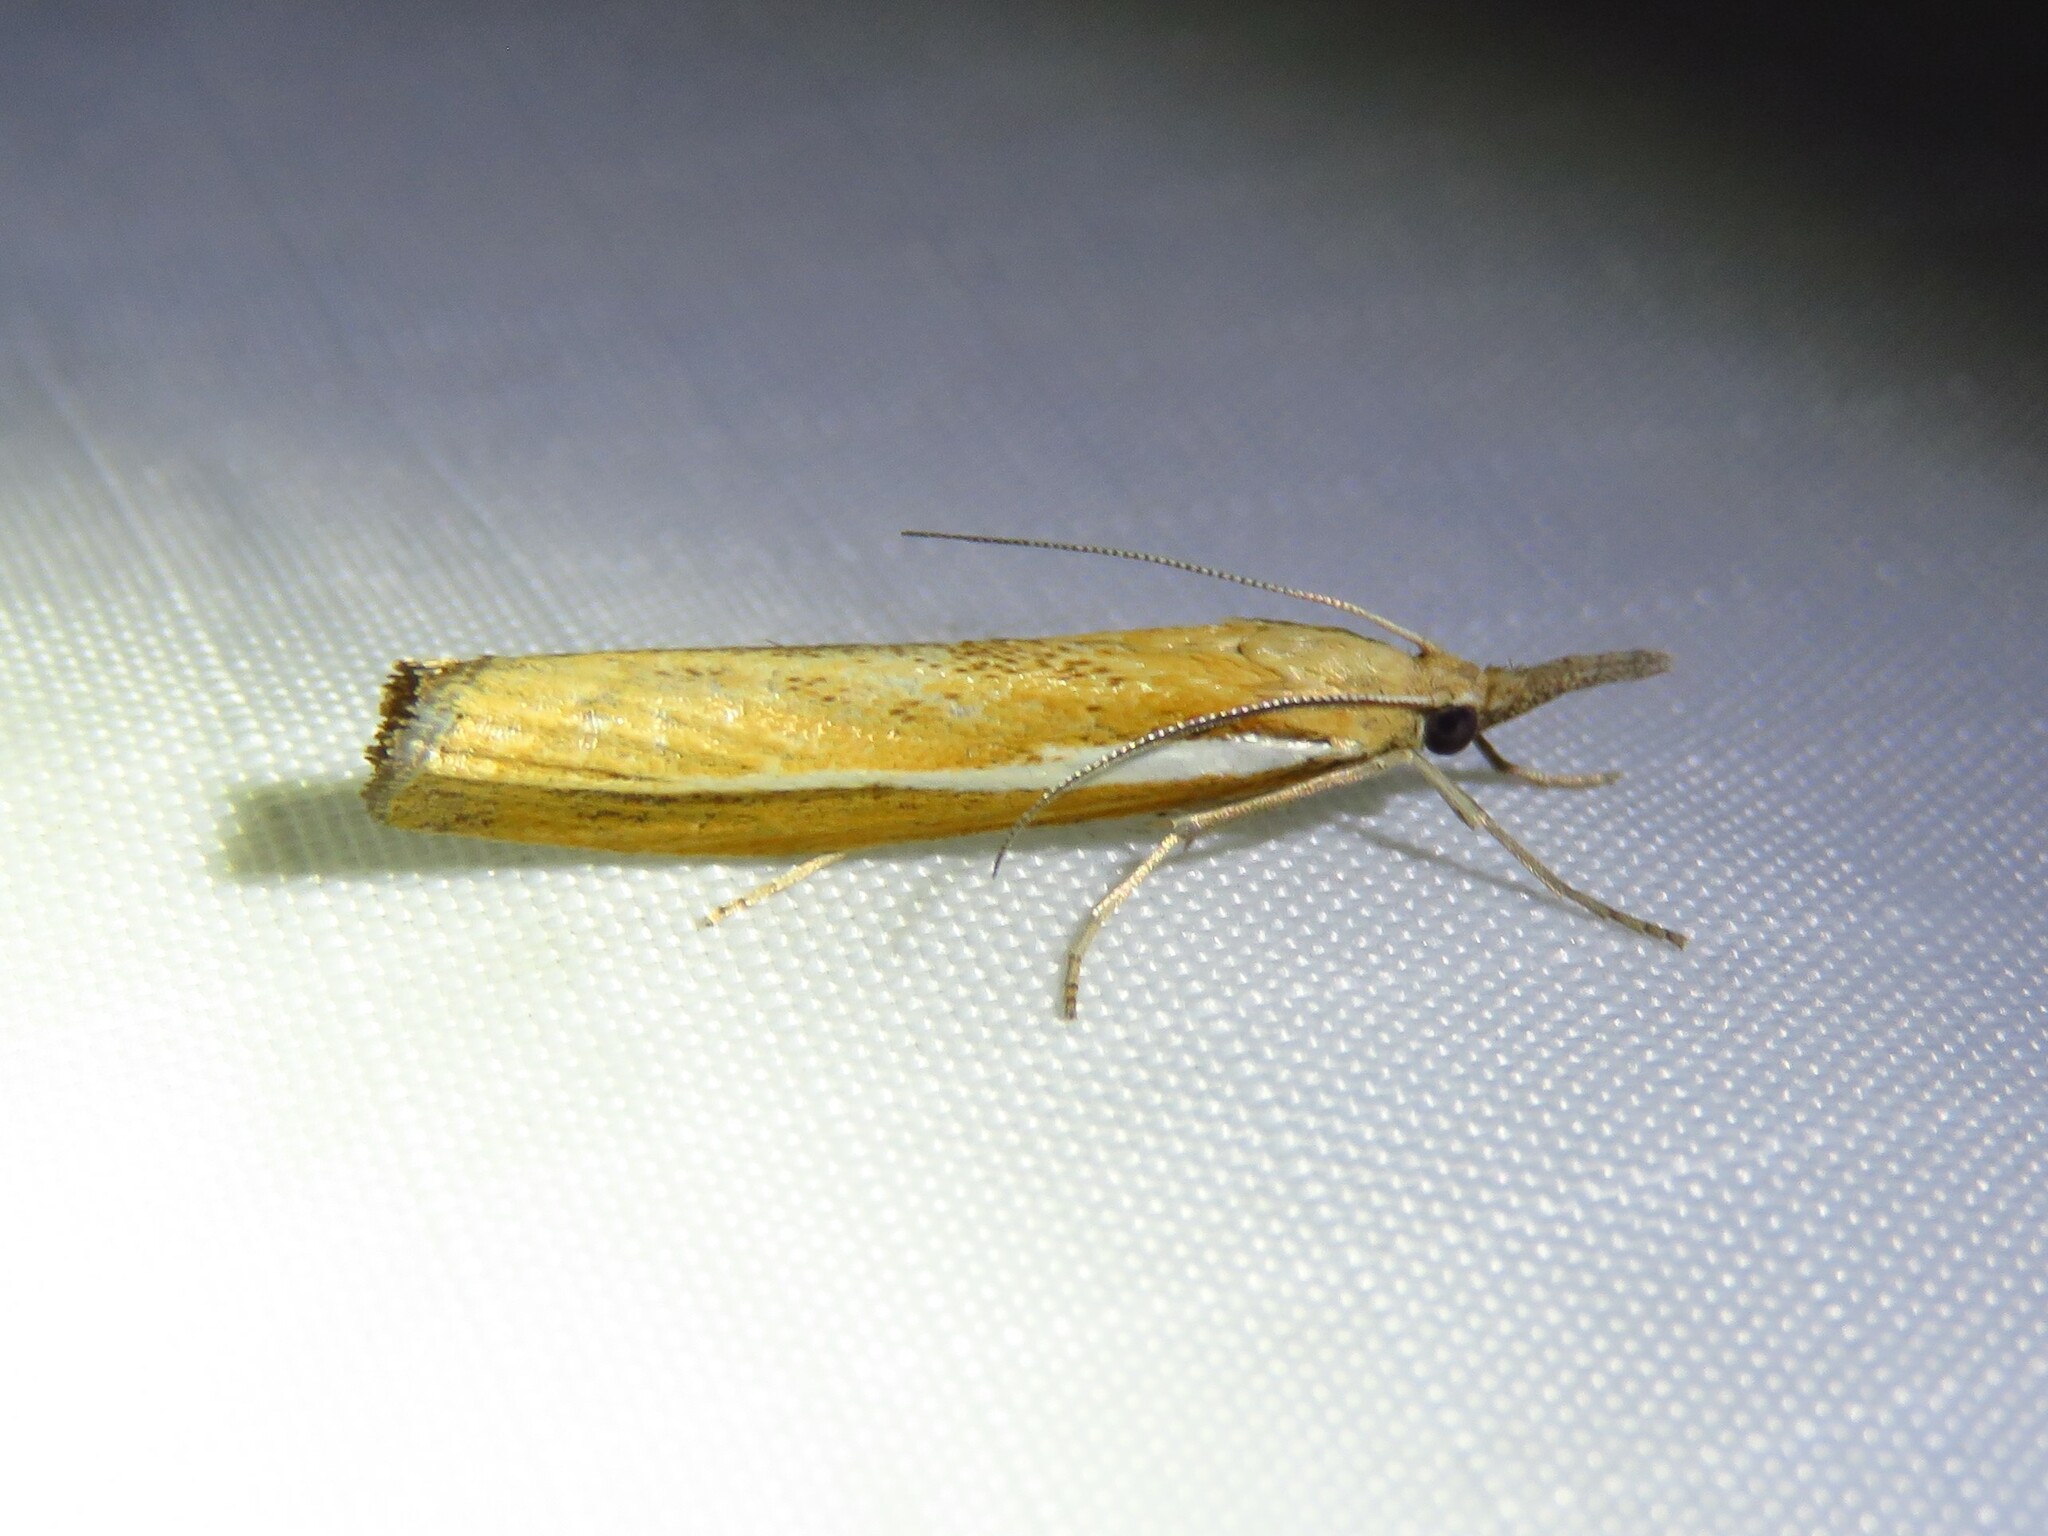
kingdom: Animalia
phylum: Arthropoda
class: Insecta
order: Lepidoptera
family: Crambidae
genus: Agriphila
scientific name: Agriphila tristellus
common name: Common grass-veneer
